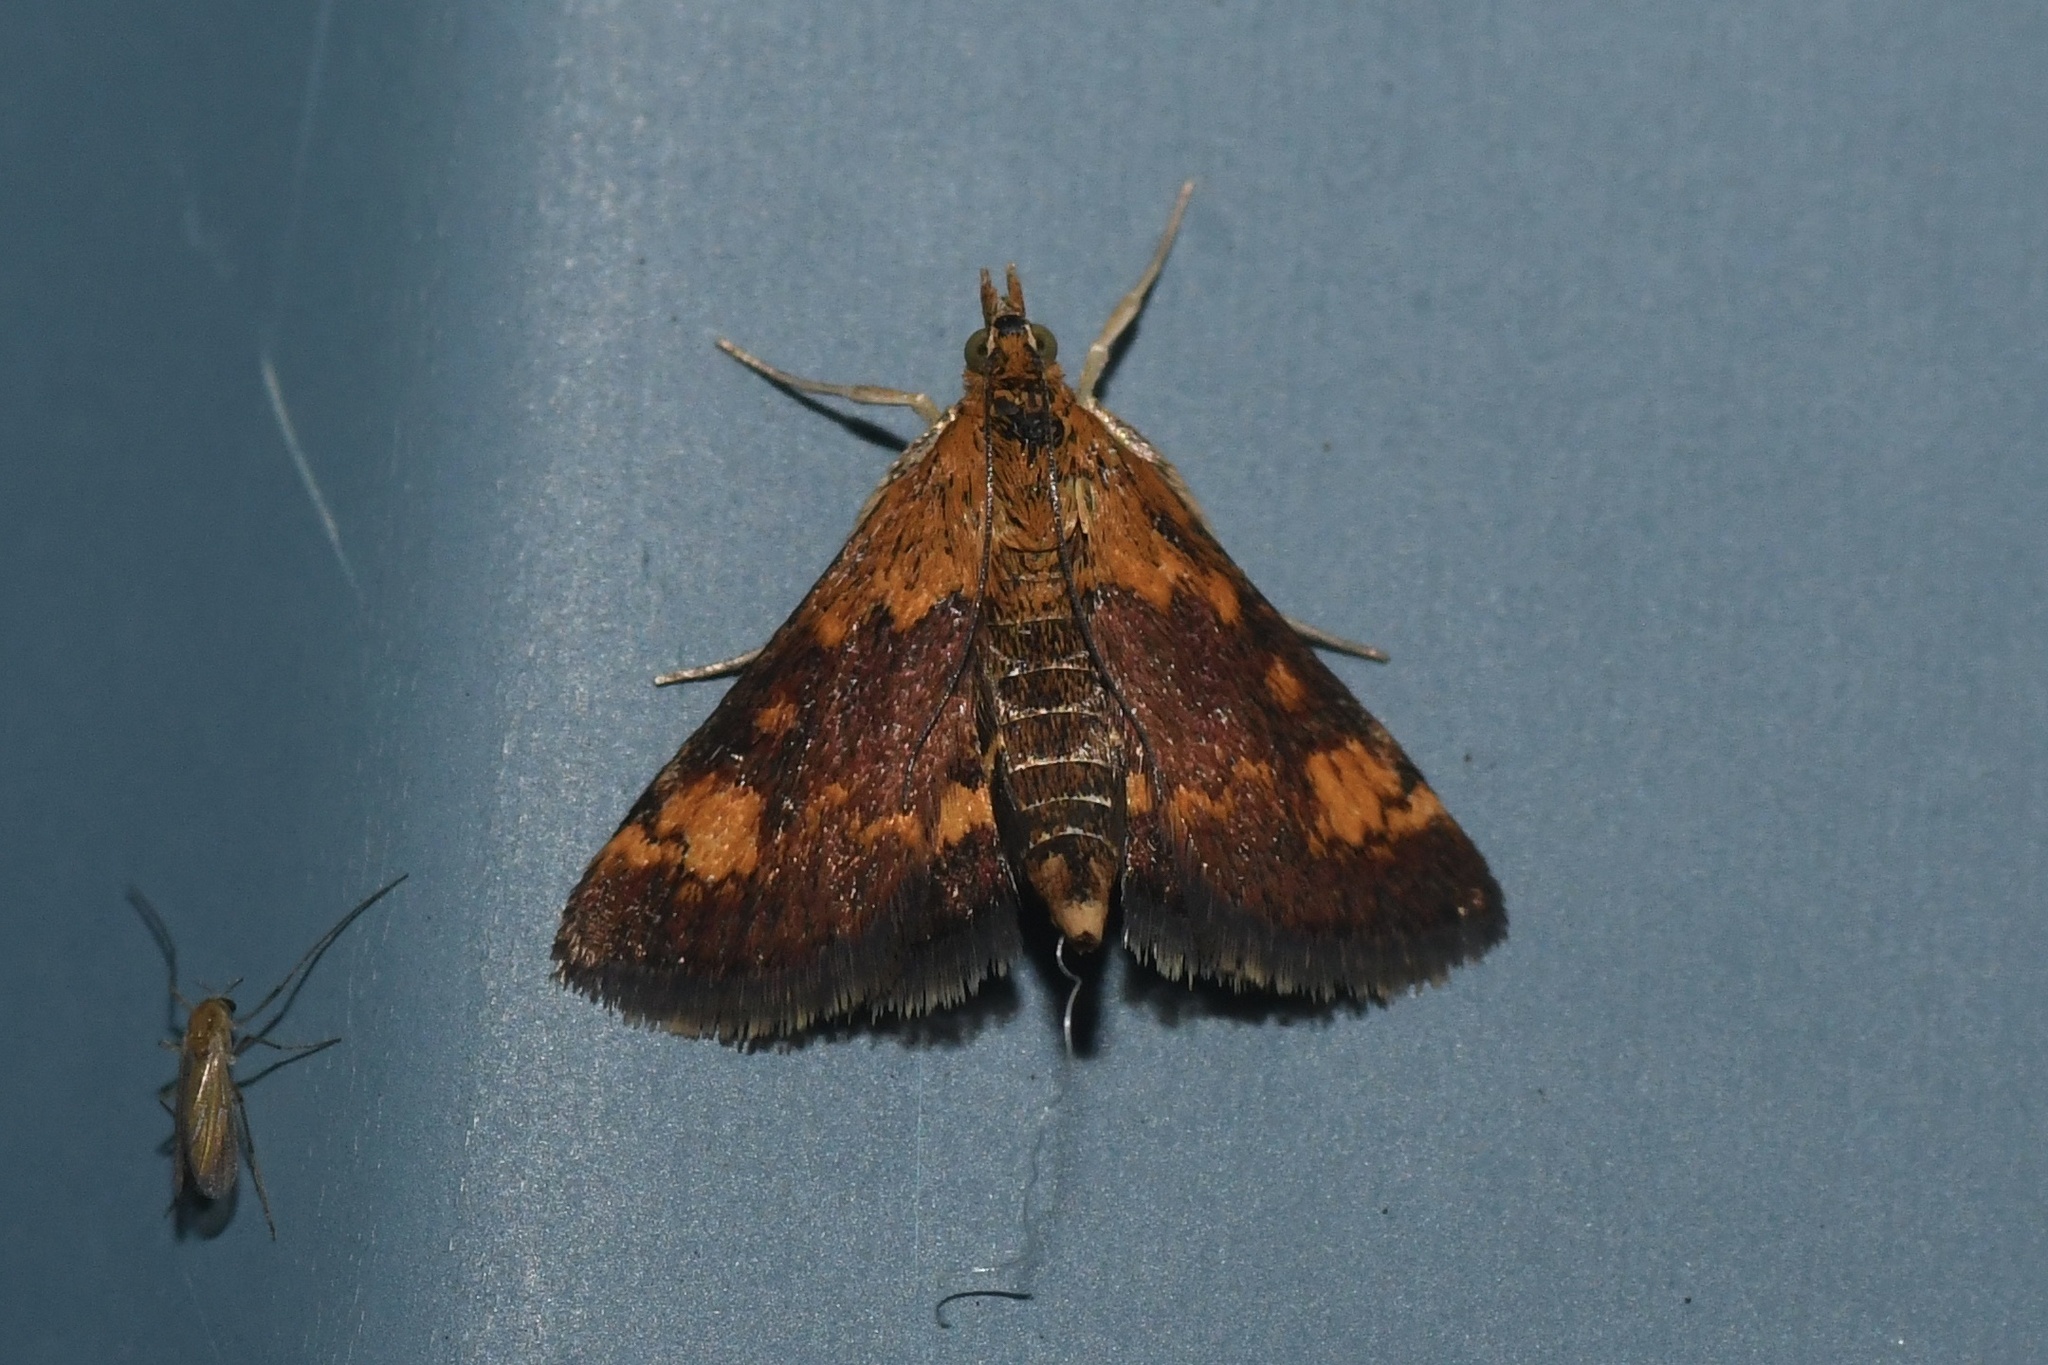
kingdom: Animalia
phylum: Arthropoda
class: Insecta
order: Lepidoptera
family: Crambidae
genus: Pyrausta
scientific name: Pyrausta orphisalis
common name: Orange mint moth
